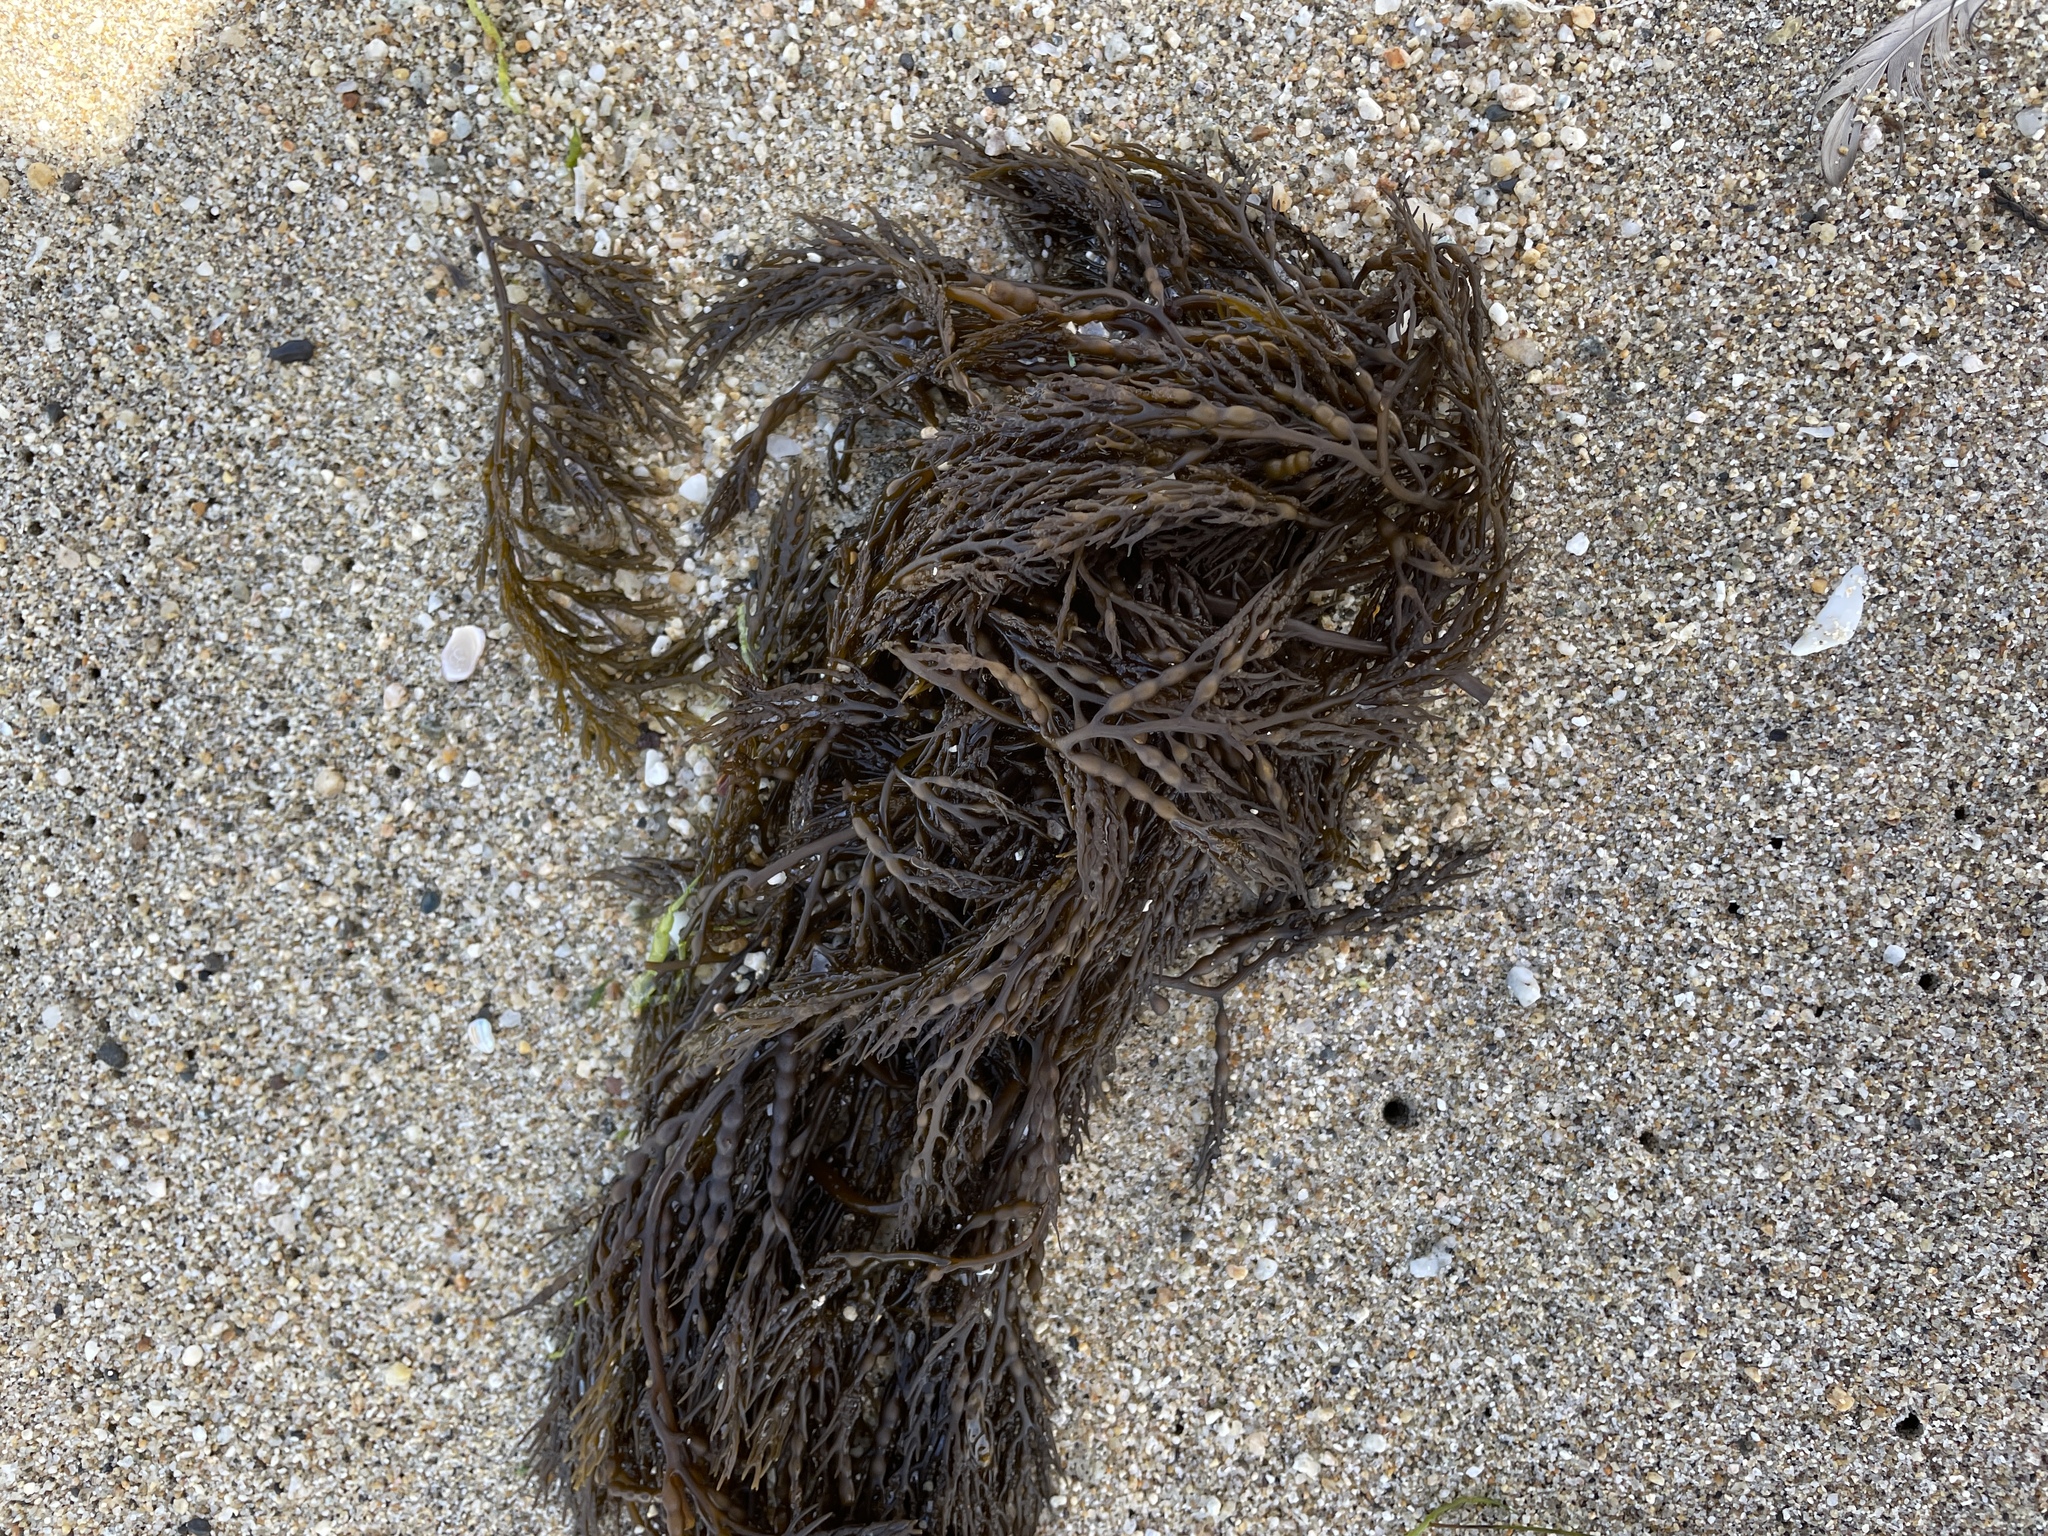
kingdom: Chromista
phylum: Ochrophyta
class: Phaeophyceae
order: Fucales
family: Sargassaceae
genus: Stephanocystis
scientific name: Stephanocystis
